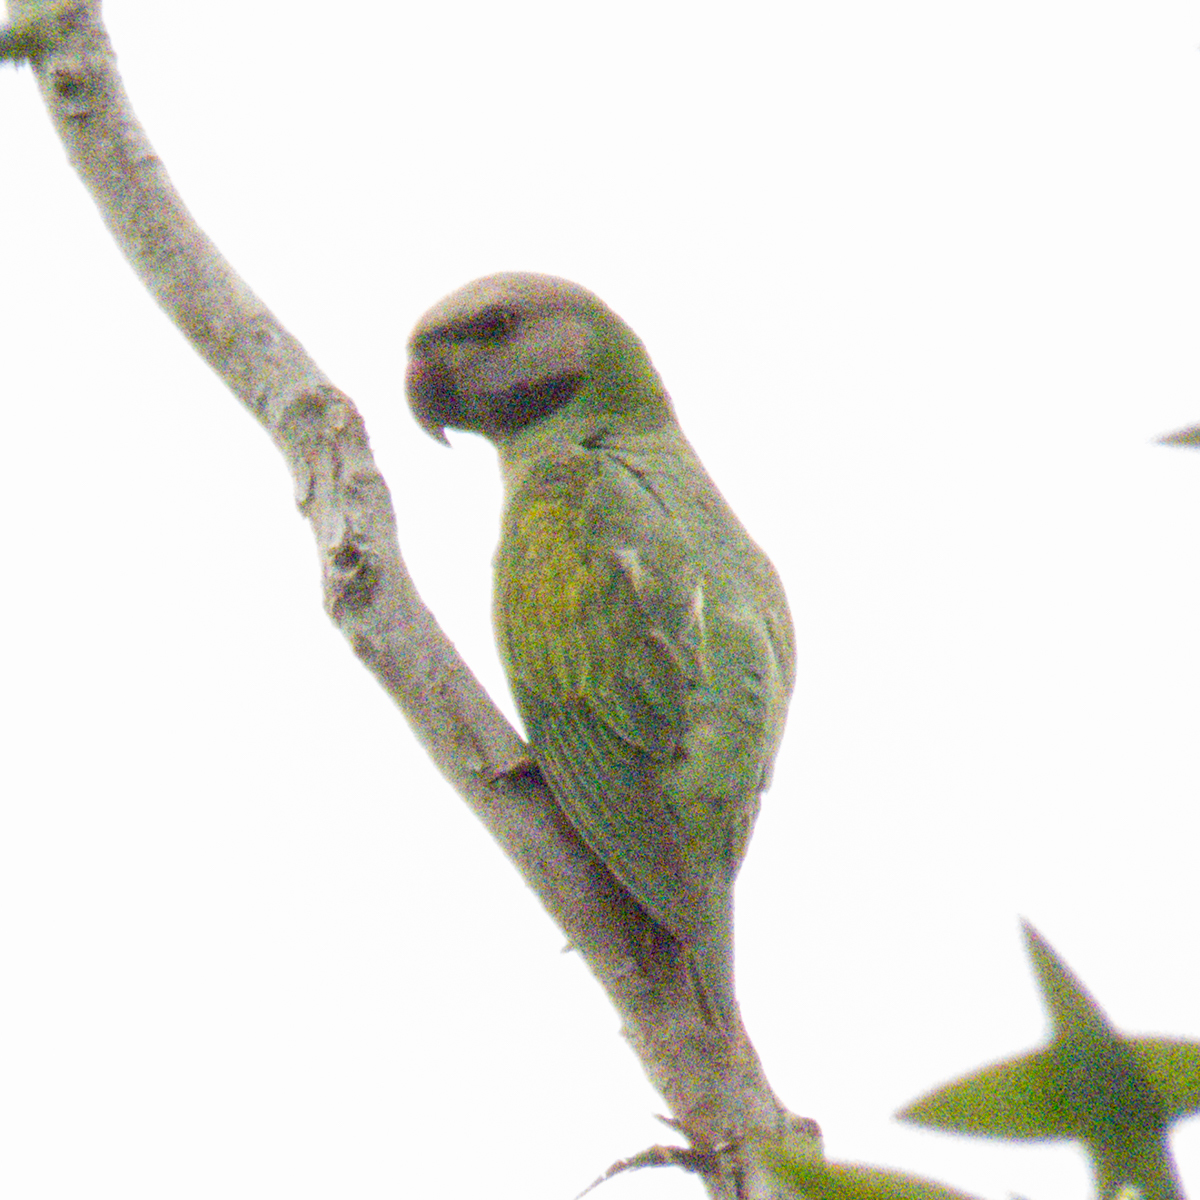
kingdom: Animalia
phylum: Chordata
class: Aves
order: Psittaciformes
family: Psittacidae
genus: Psittacula
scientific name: Psittacula alexandri
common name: Red-breasted parakeet
